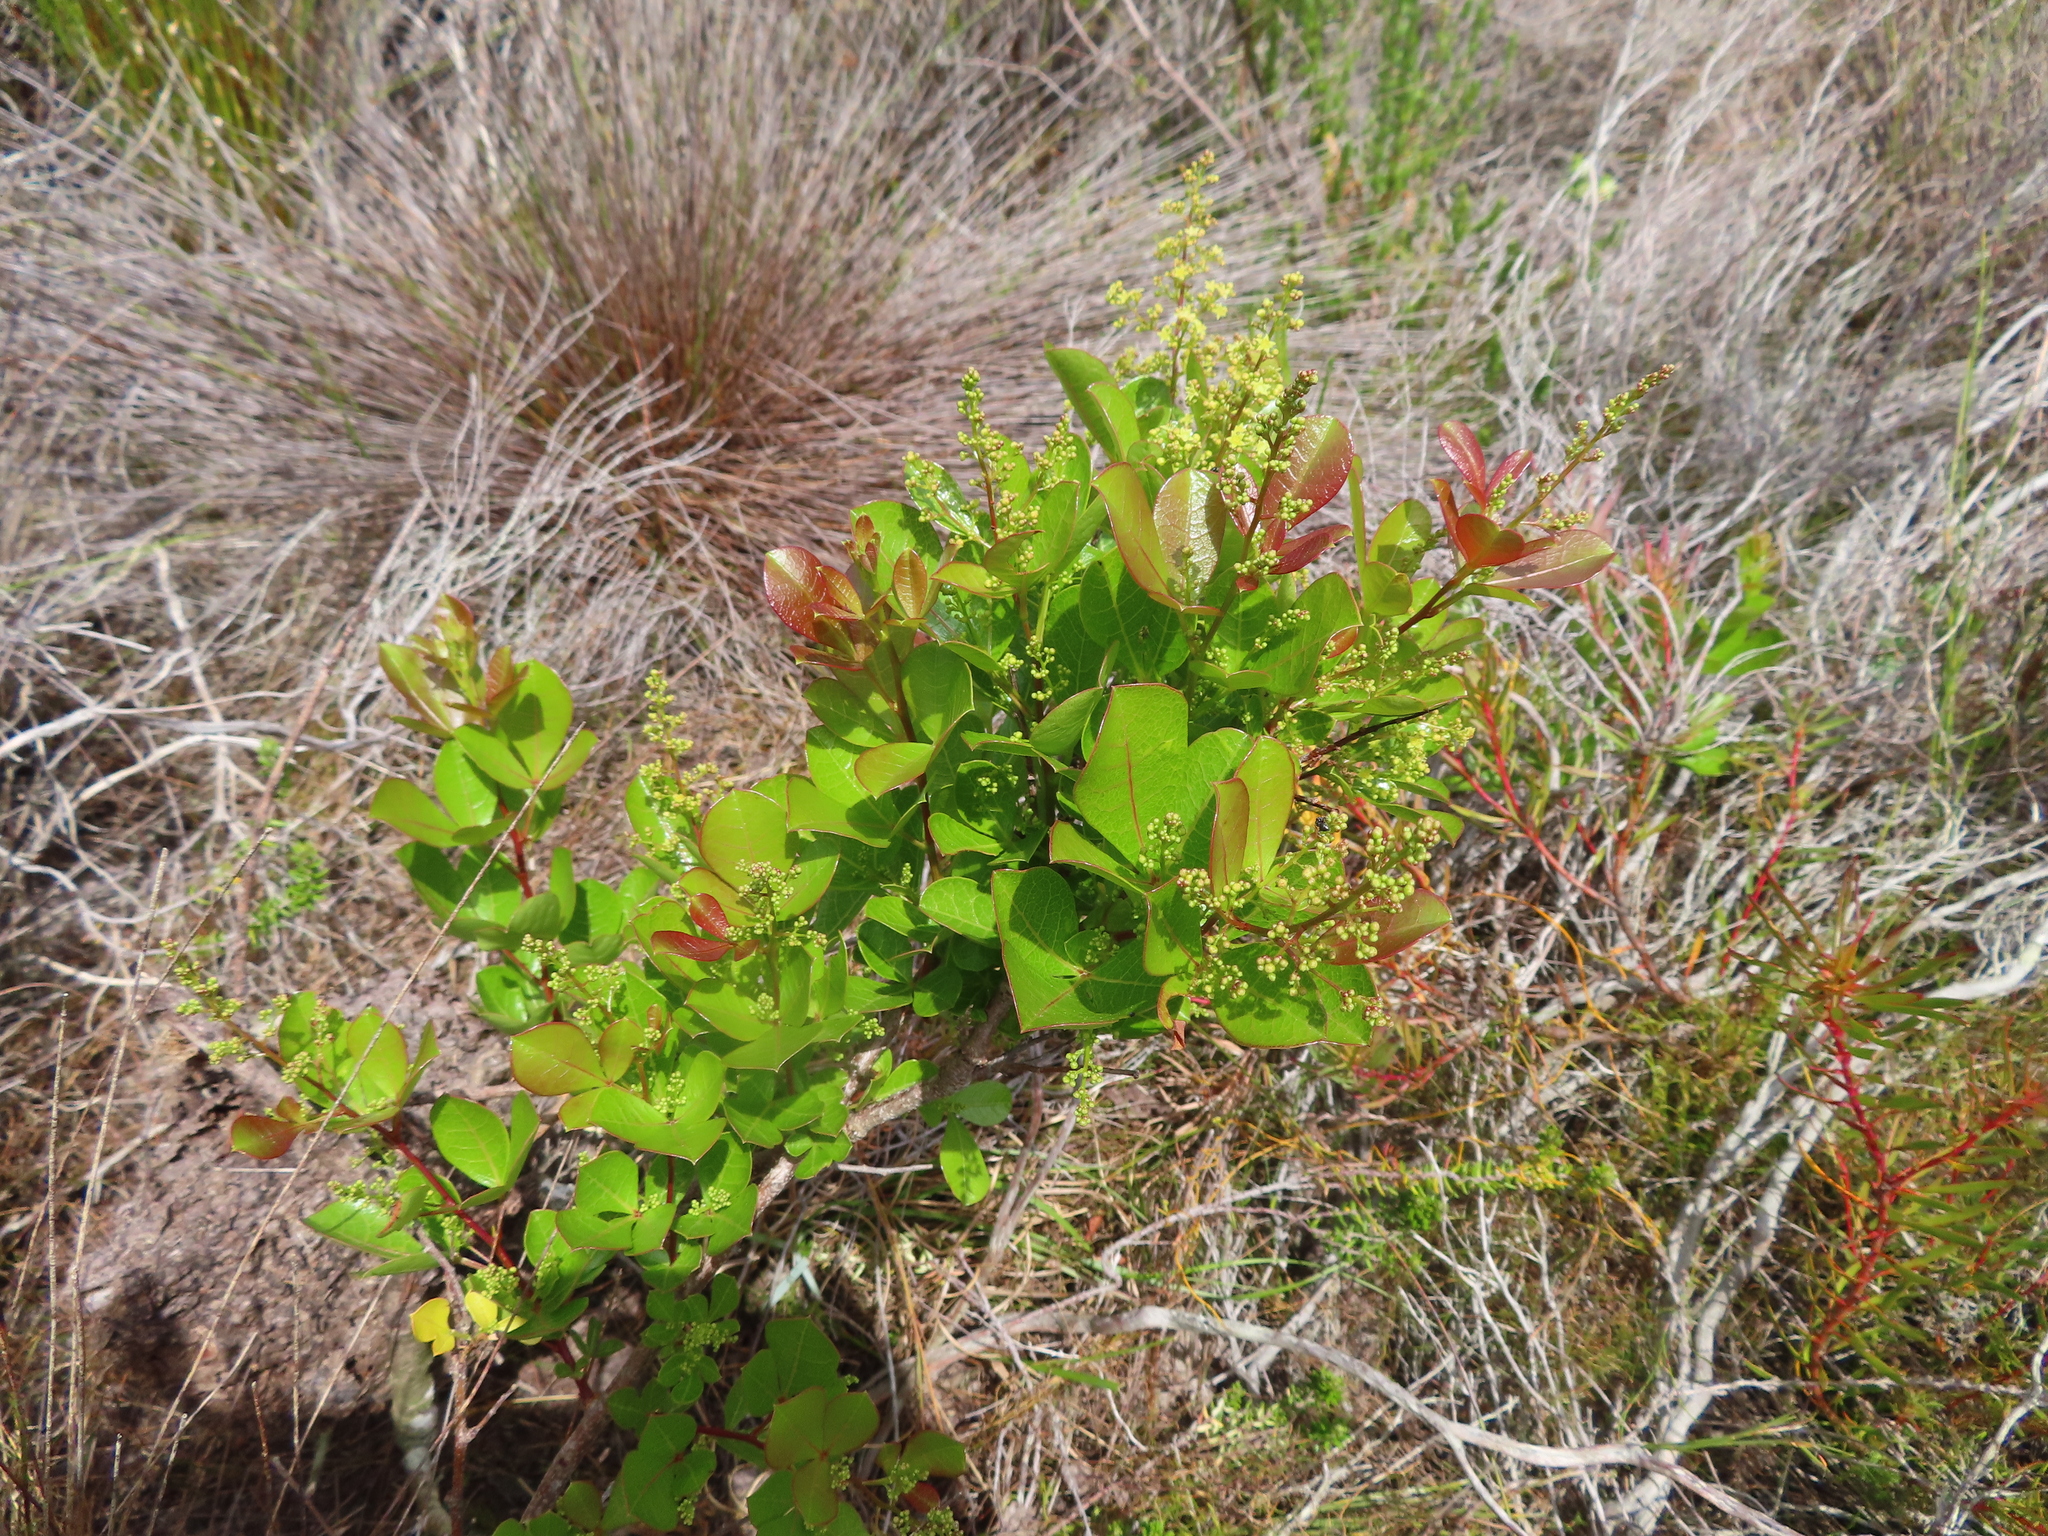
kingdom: Plantae
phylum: Tracheophyta
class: Magnoliopsida
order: Sapindales
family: Anacardiaceae
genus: Searsia
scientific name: Searsia laevigata
